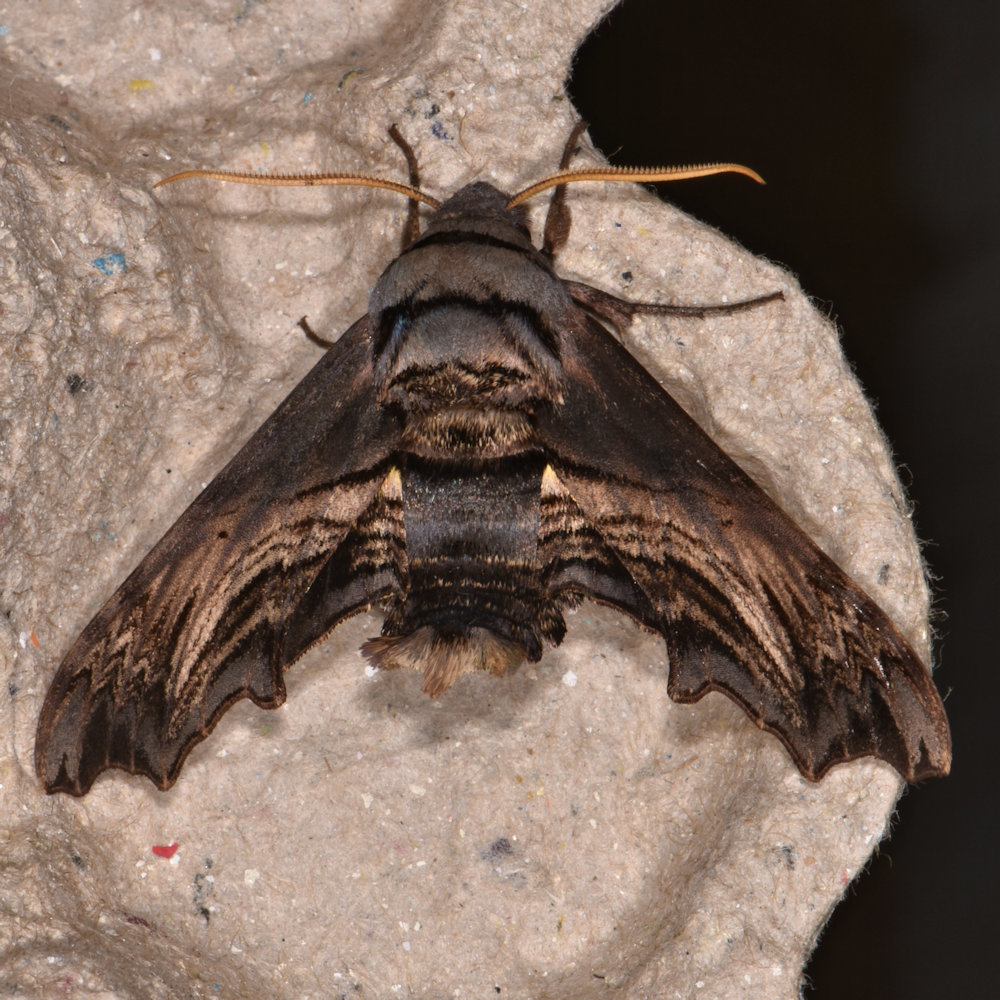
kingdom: Animalia
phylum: Arthropoda
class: Insecta
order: Lepidoptera
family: Sphingidae
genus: Sphecodina
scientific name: Sphecodina abbottii
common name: Abbott's sphinx
